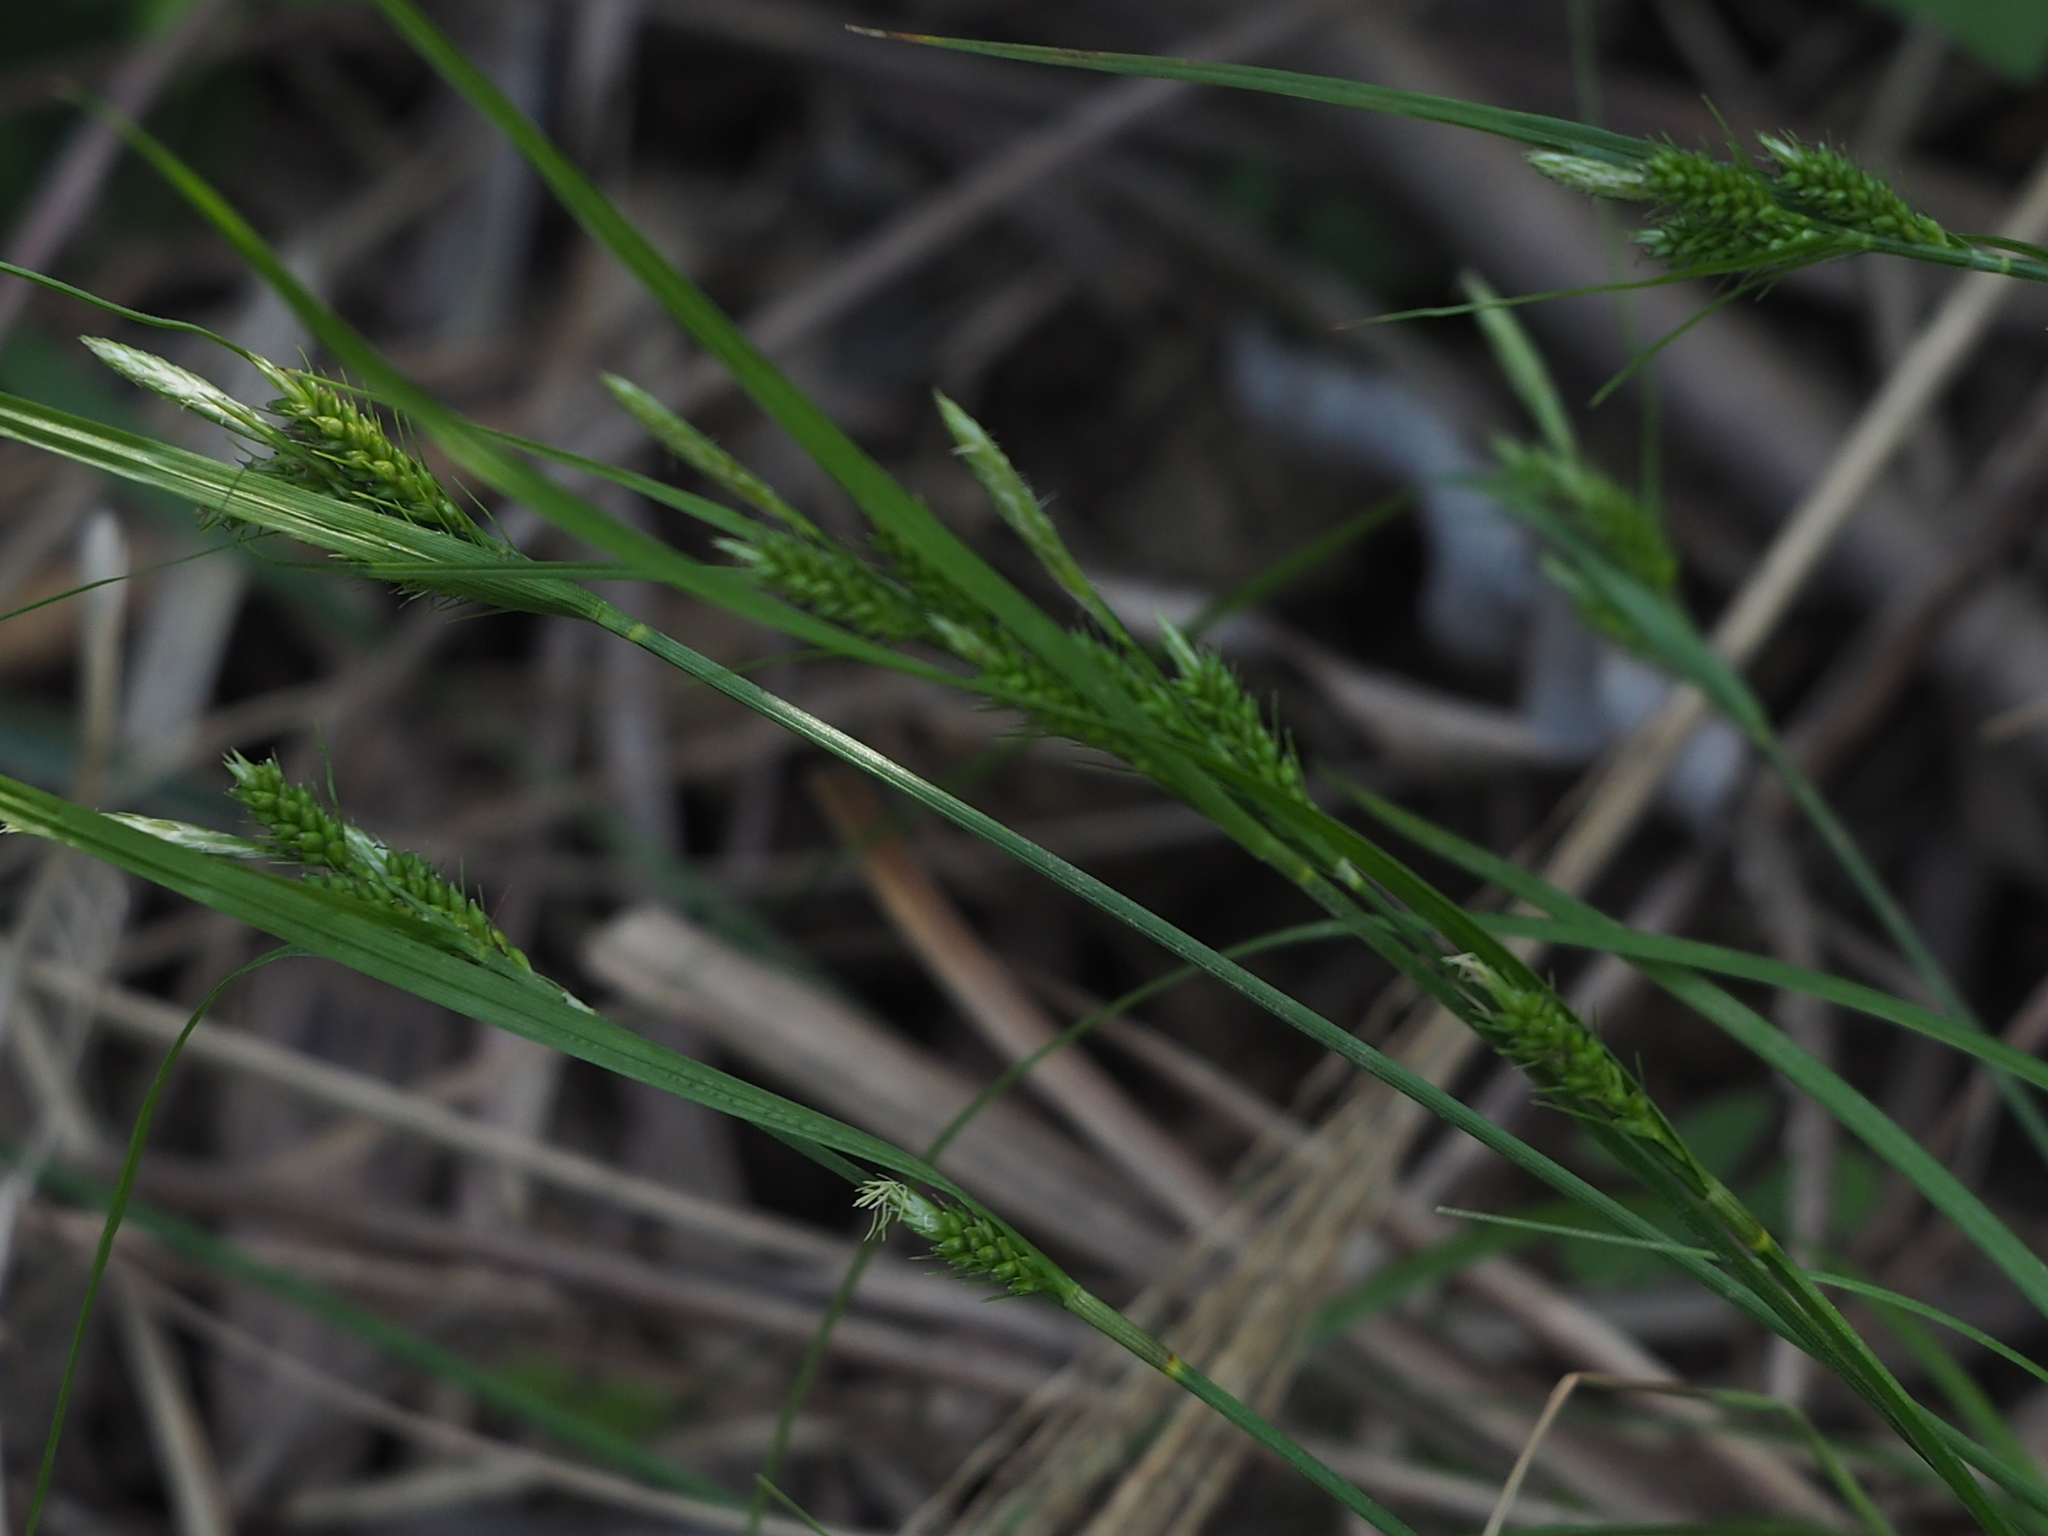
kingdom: Plantae
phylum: Tracheophyta
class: Liliopsida
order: Poales
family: Cyperaceae
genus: Carex
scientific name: Carex breviculmis
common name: Asian shortstem sedge
